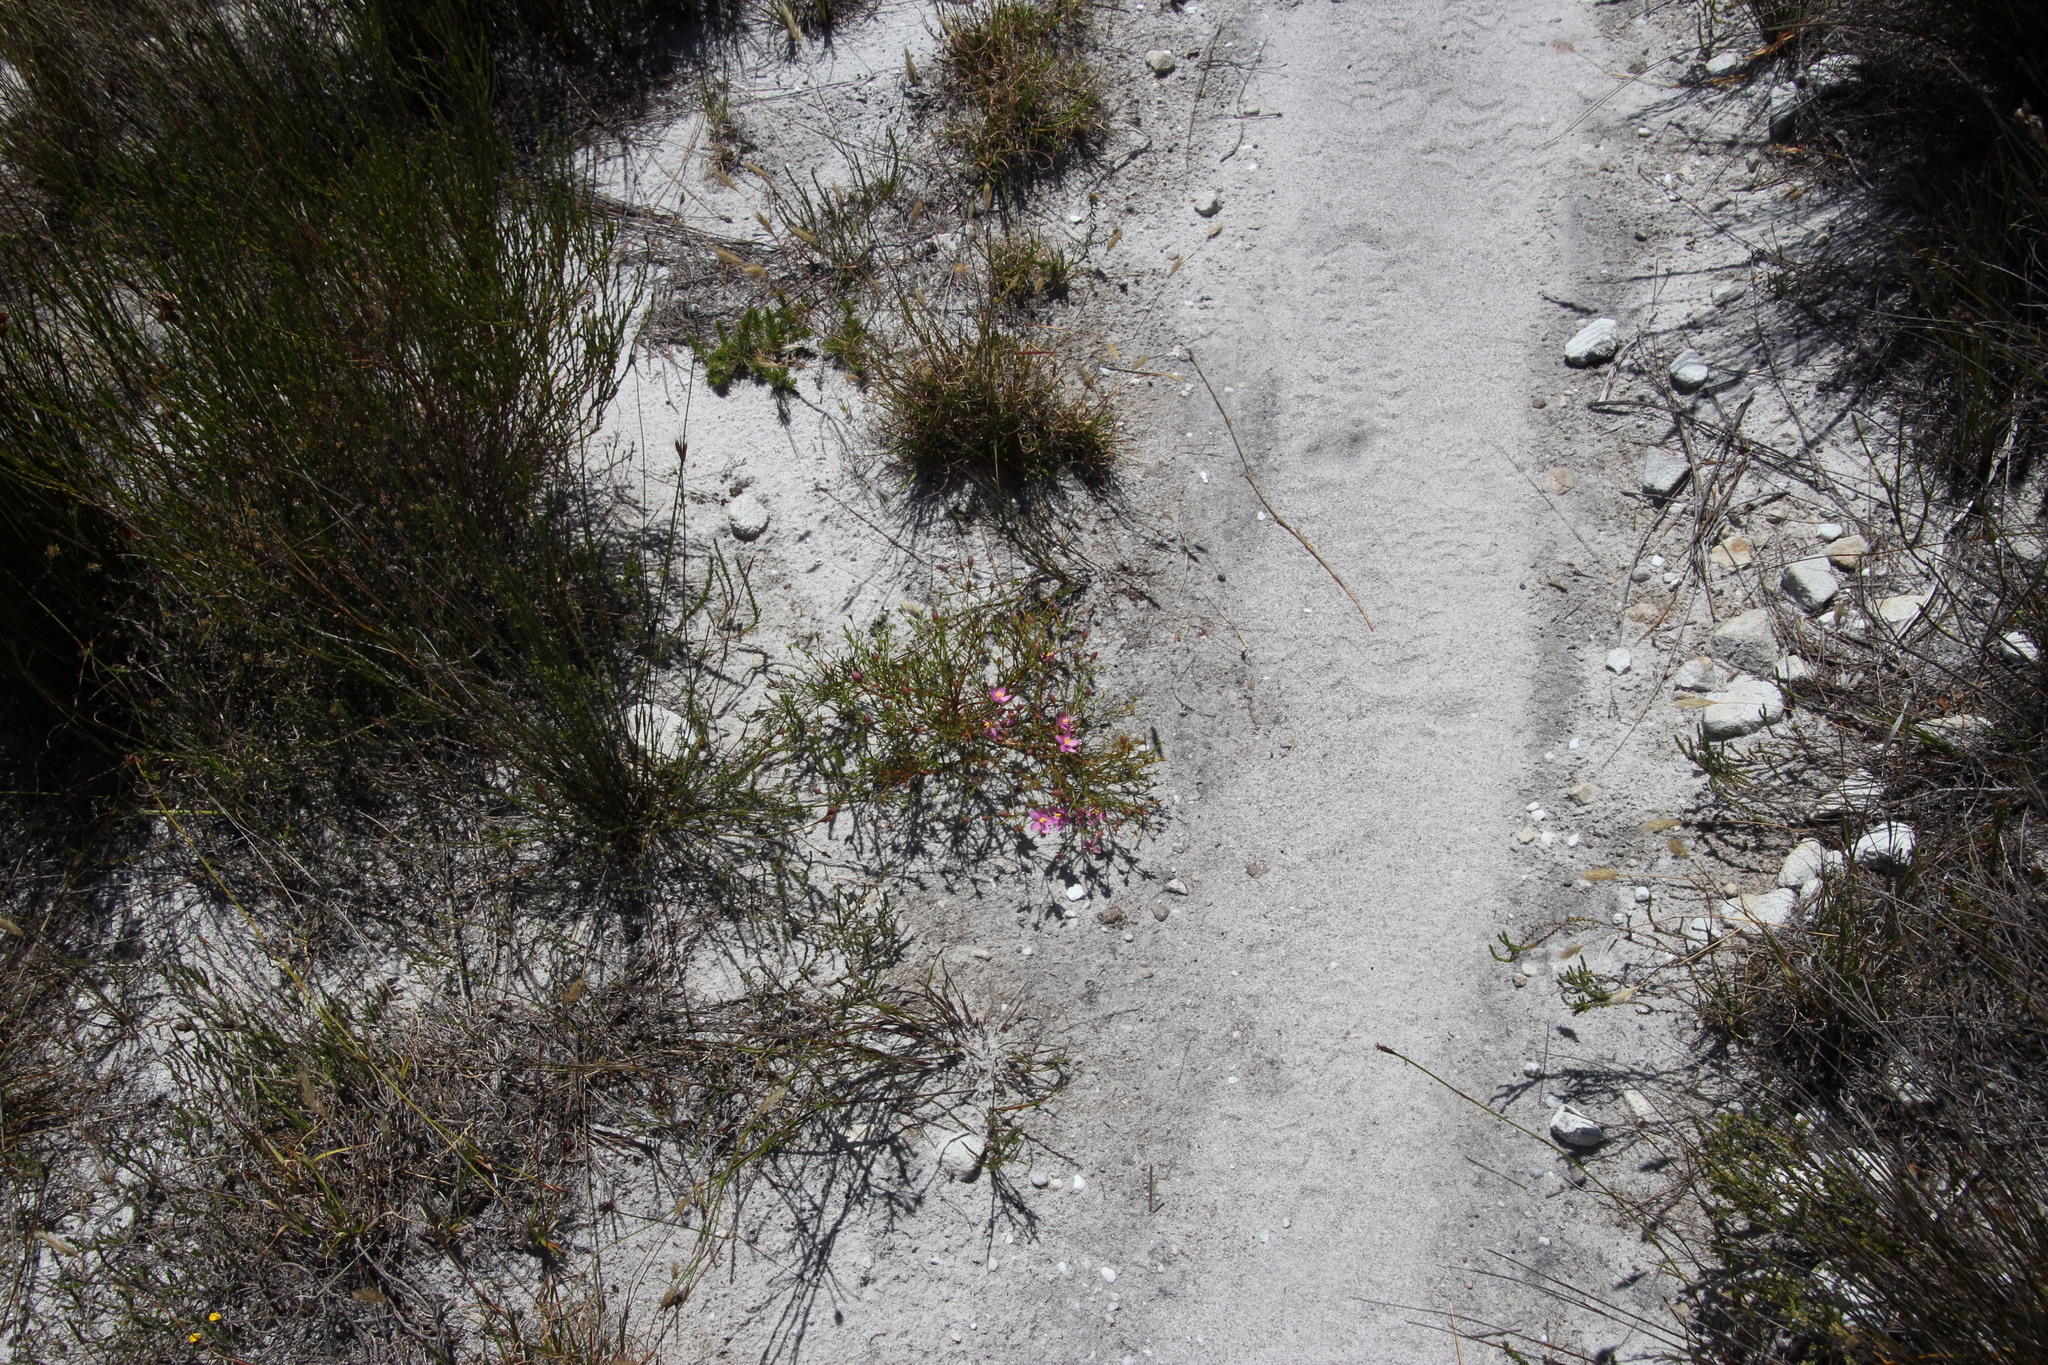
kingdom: Plantae
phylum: Tracheophyta
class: Magnoliopsida
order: Gentianales
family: Gentianaceae
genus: Chironia
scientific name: Chironia linoides
